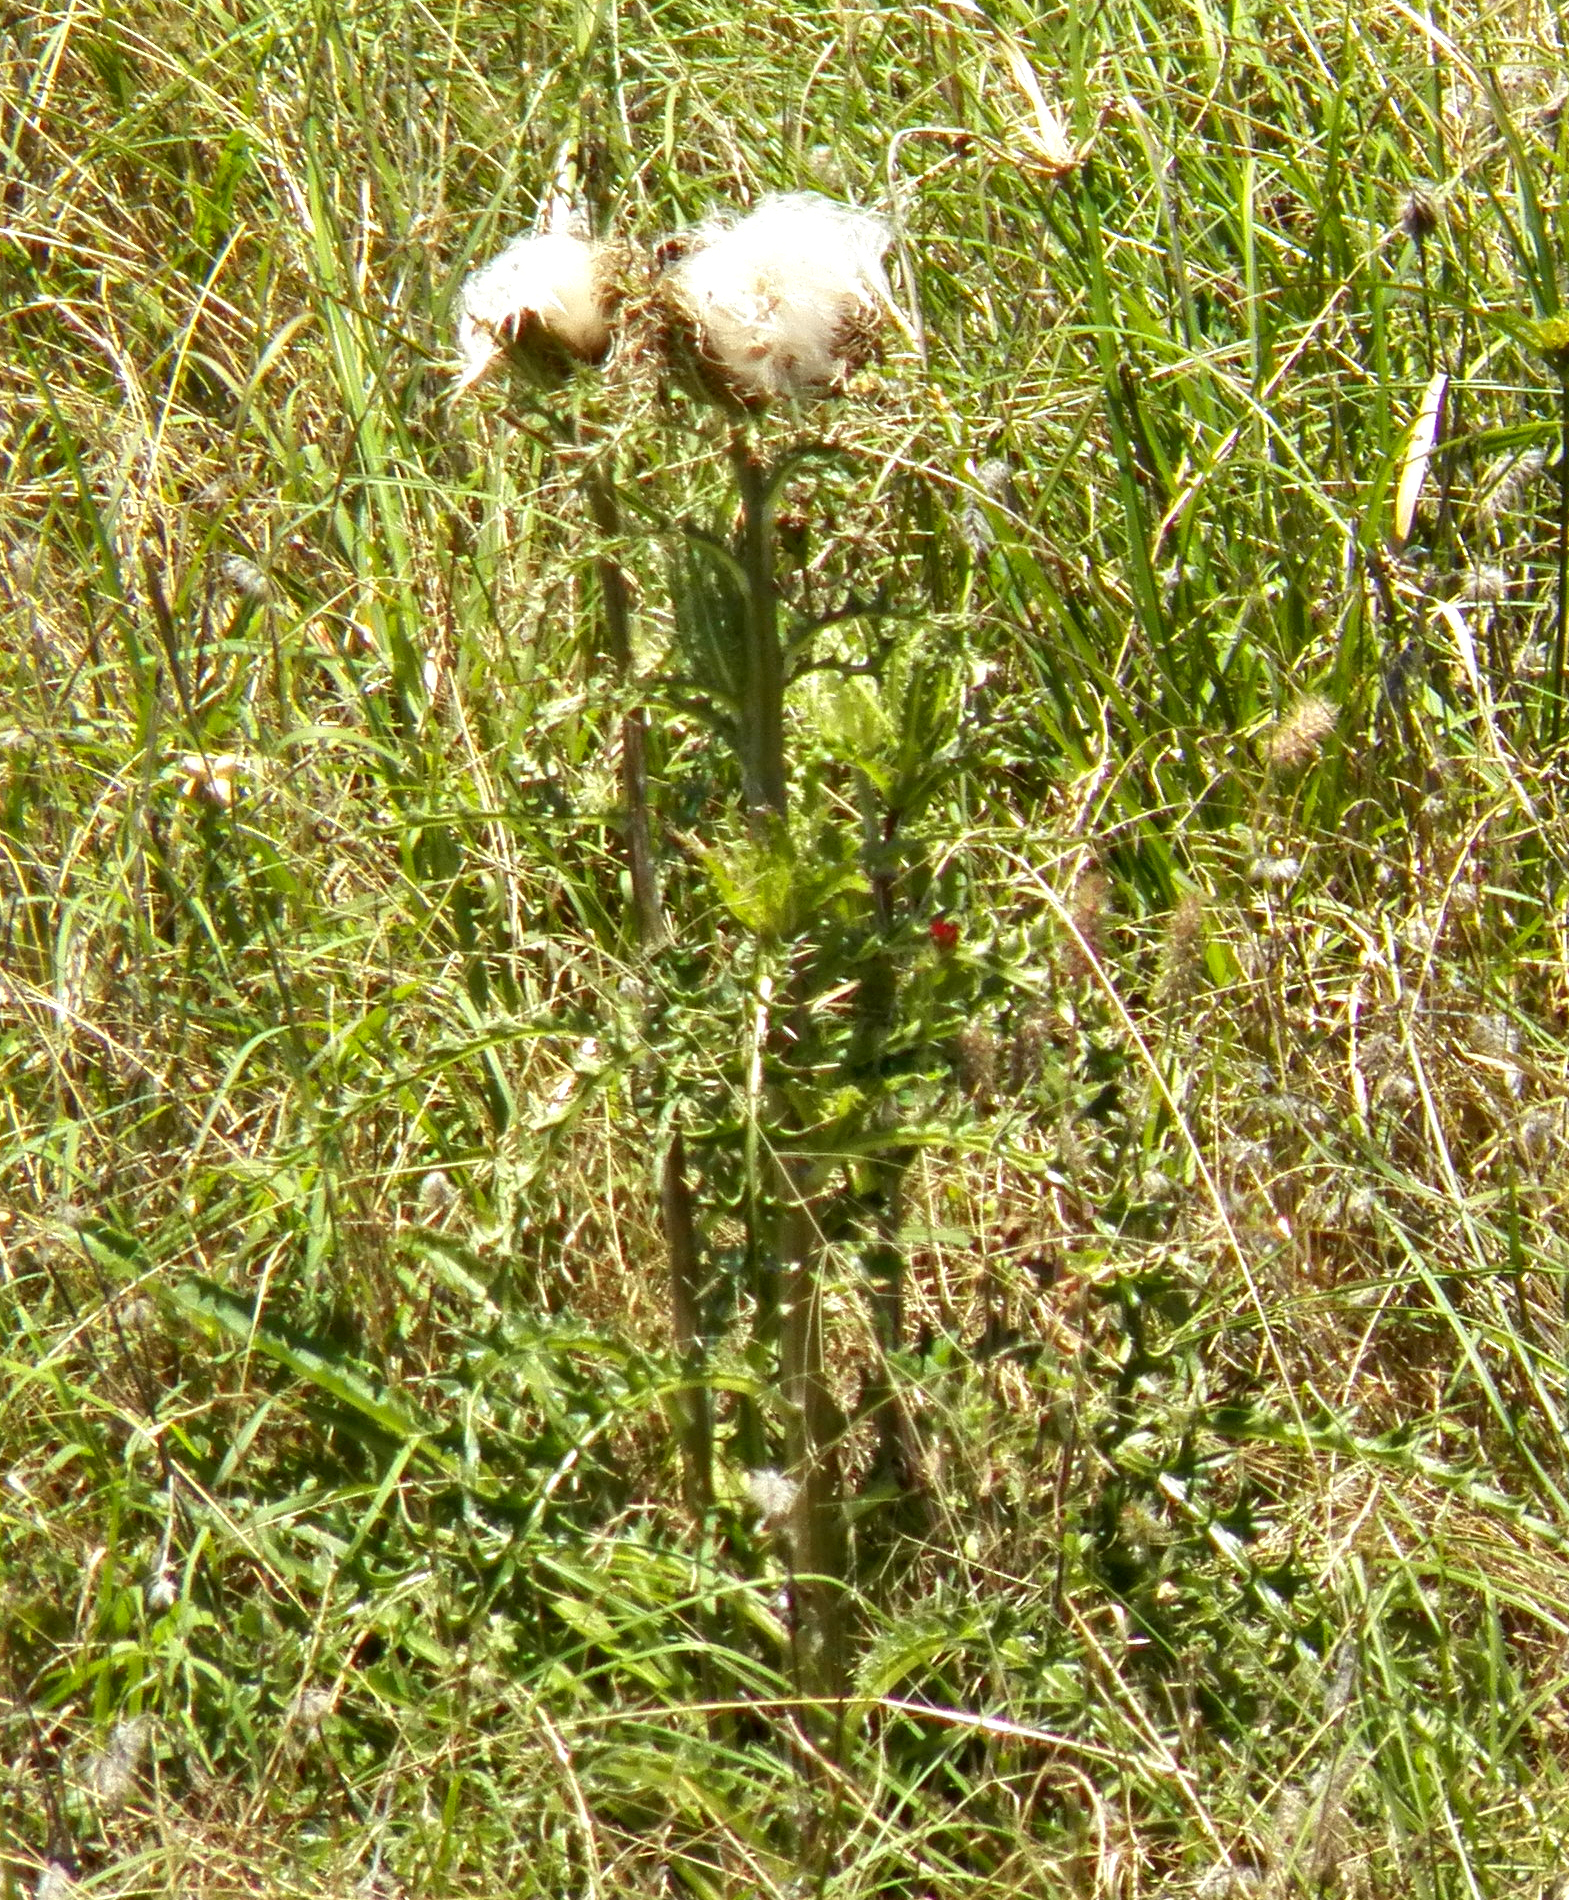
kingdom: Plantae
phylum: Tracheophyta
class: Magnoliopsida
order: Asterales
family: Asteraceae
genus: Cirsium
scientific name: Cirsium horridulum
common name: Bristly thistle
